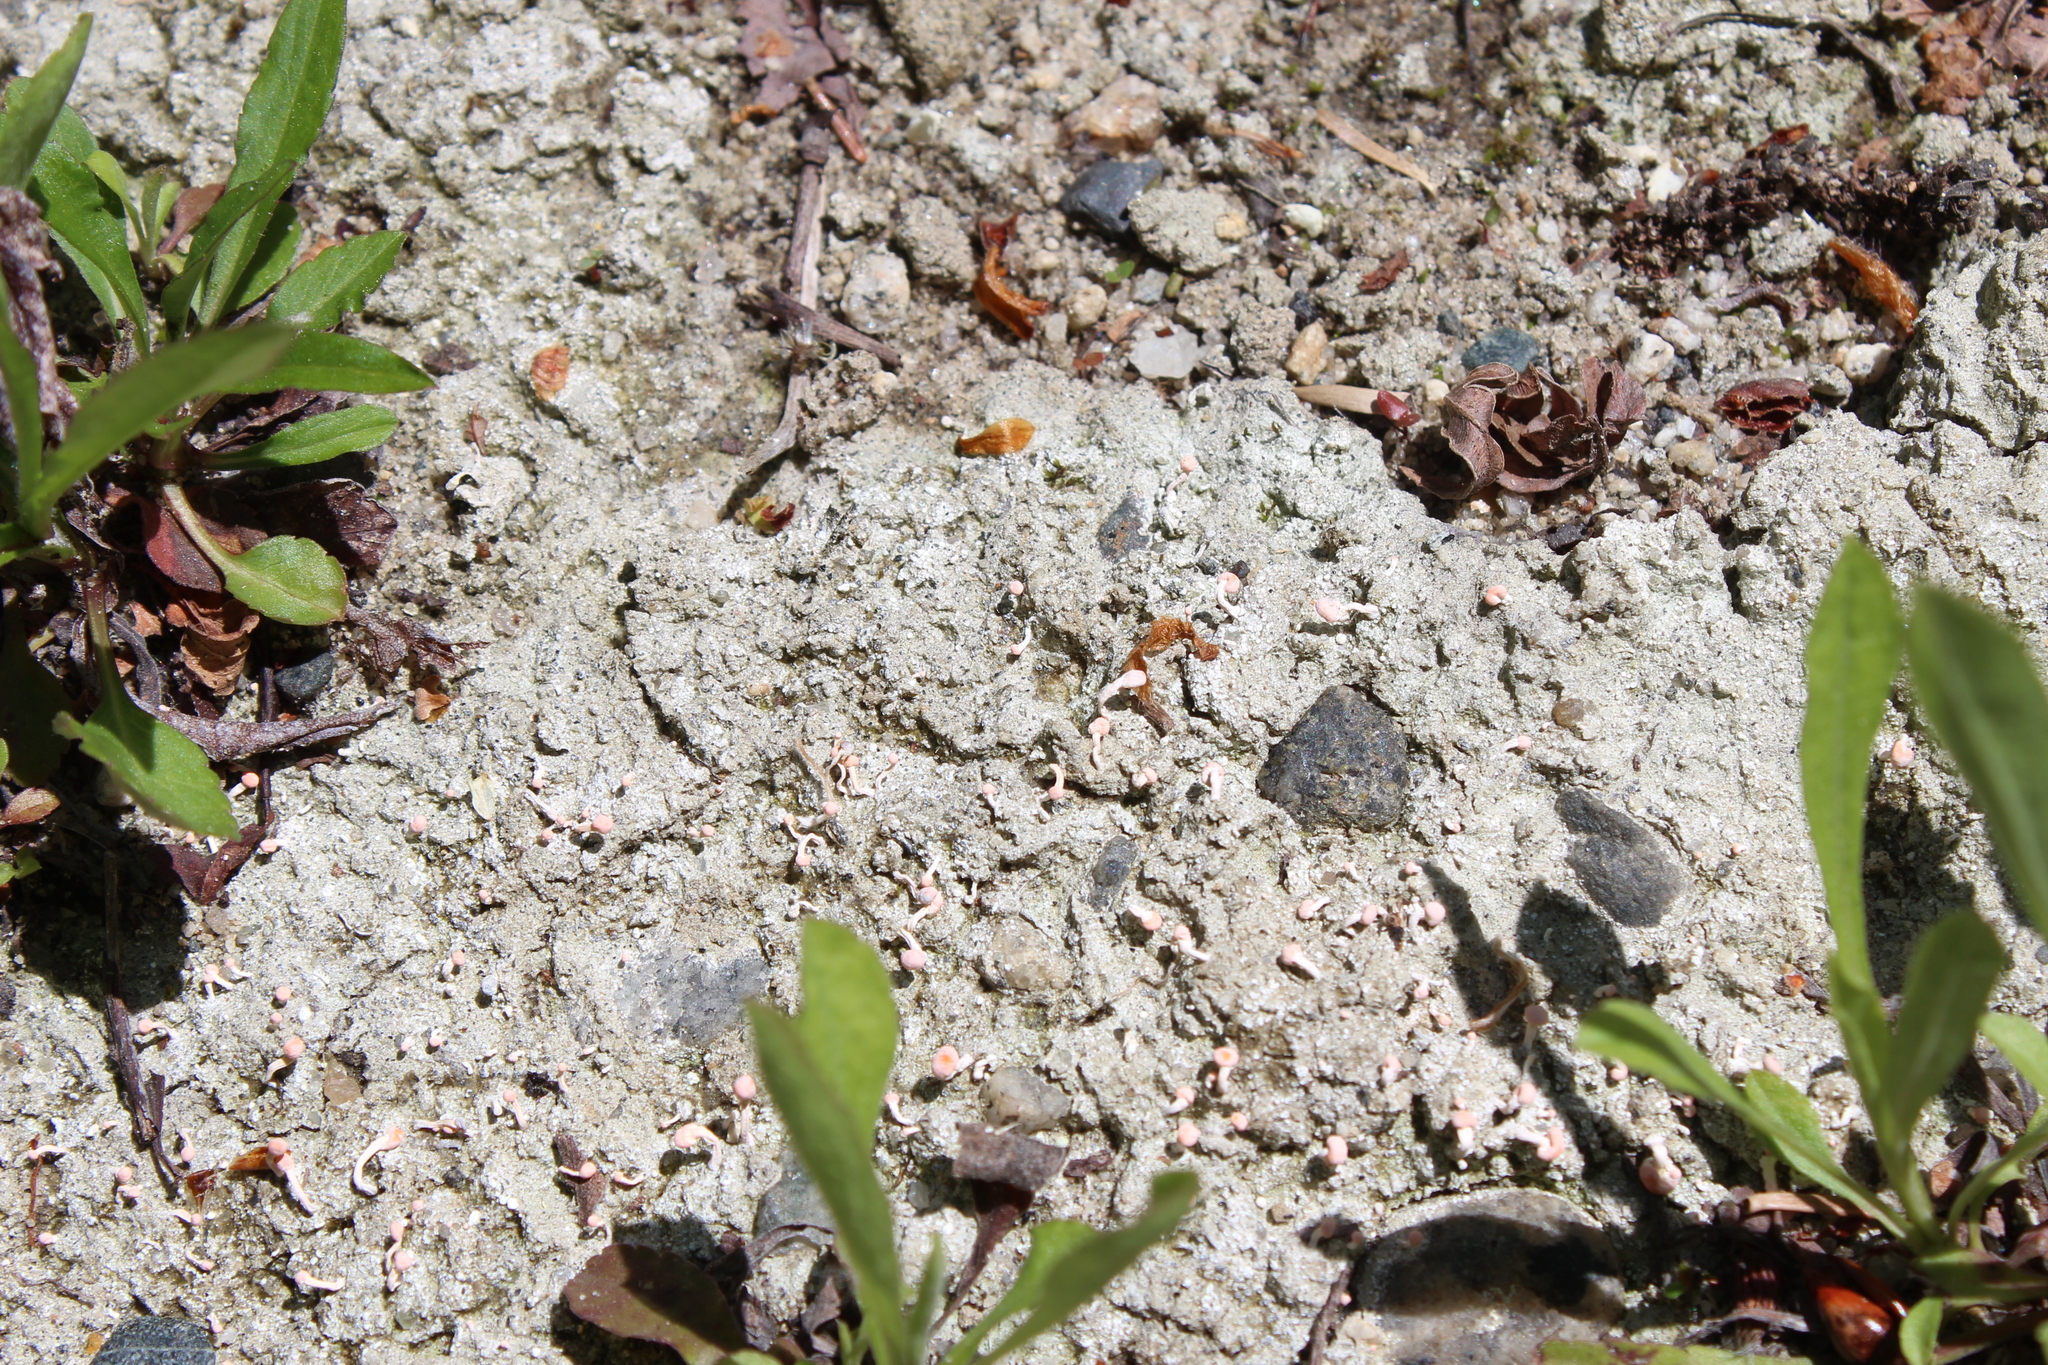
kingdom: Fungi
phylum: Ascomycota
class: Lecanoromycetes
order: Pertusariales
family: Icmadophilaceae
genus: Dibaeis
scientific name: Dibaeis baeomyces
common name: Pink earth lichen
